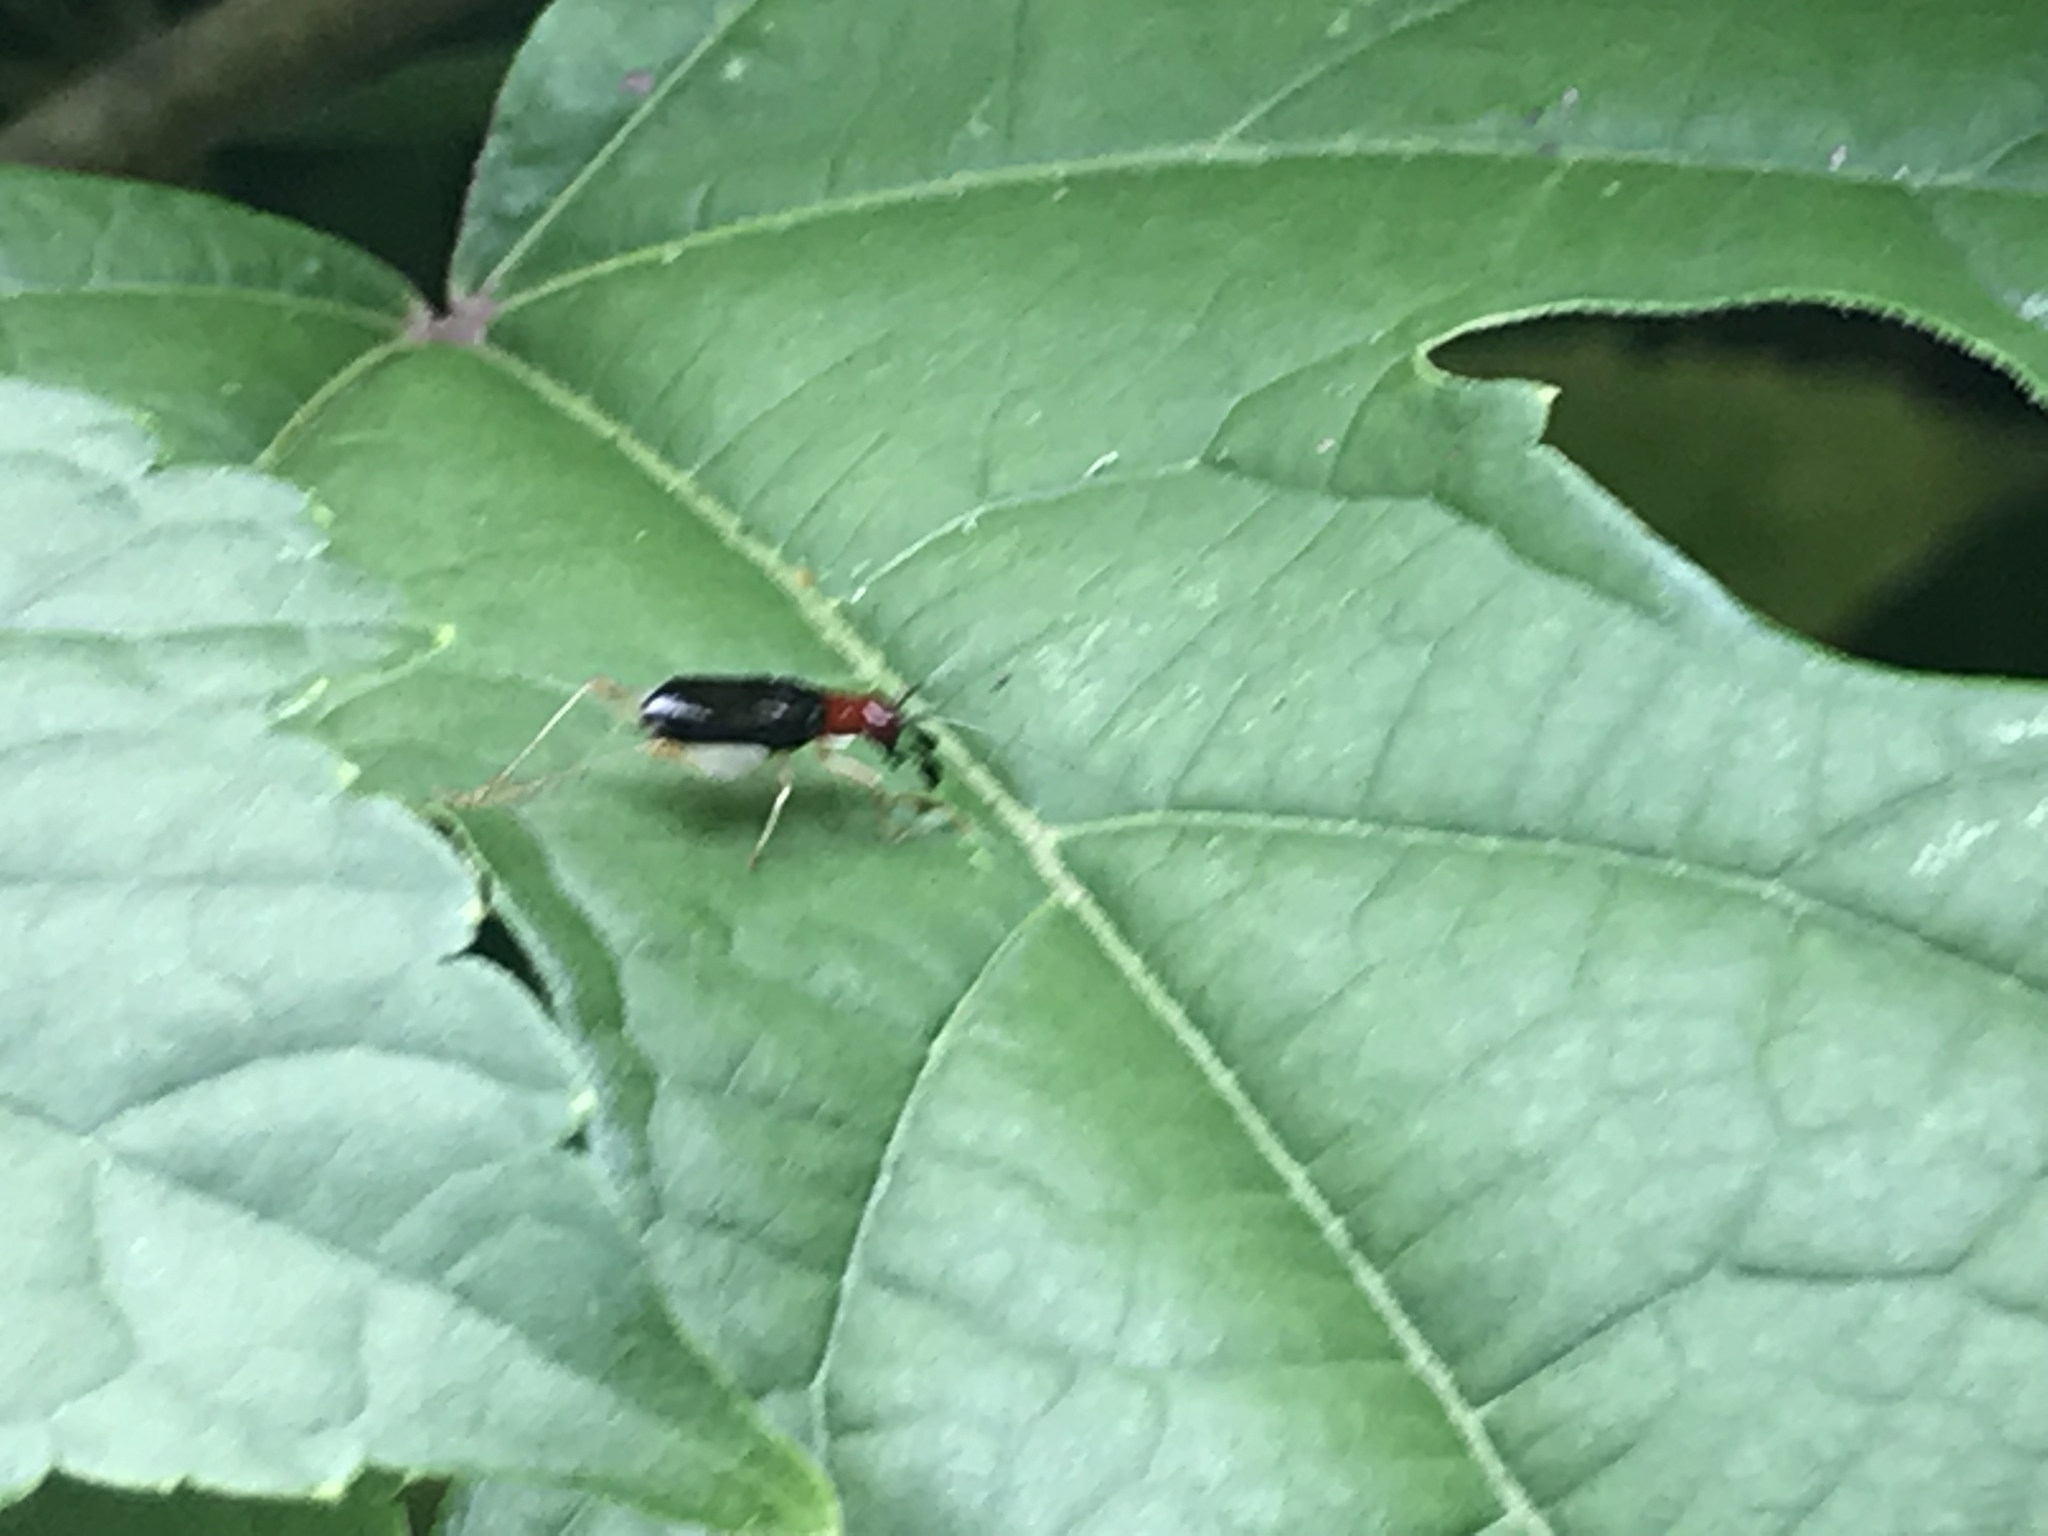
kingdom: Animalia
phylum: Arthropoda
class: Insecta
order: Orthoptera
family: Trigonidiidae
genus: Phyllopalpus
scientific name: Phyllopalpus pulchellus
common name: Handsome trig
